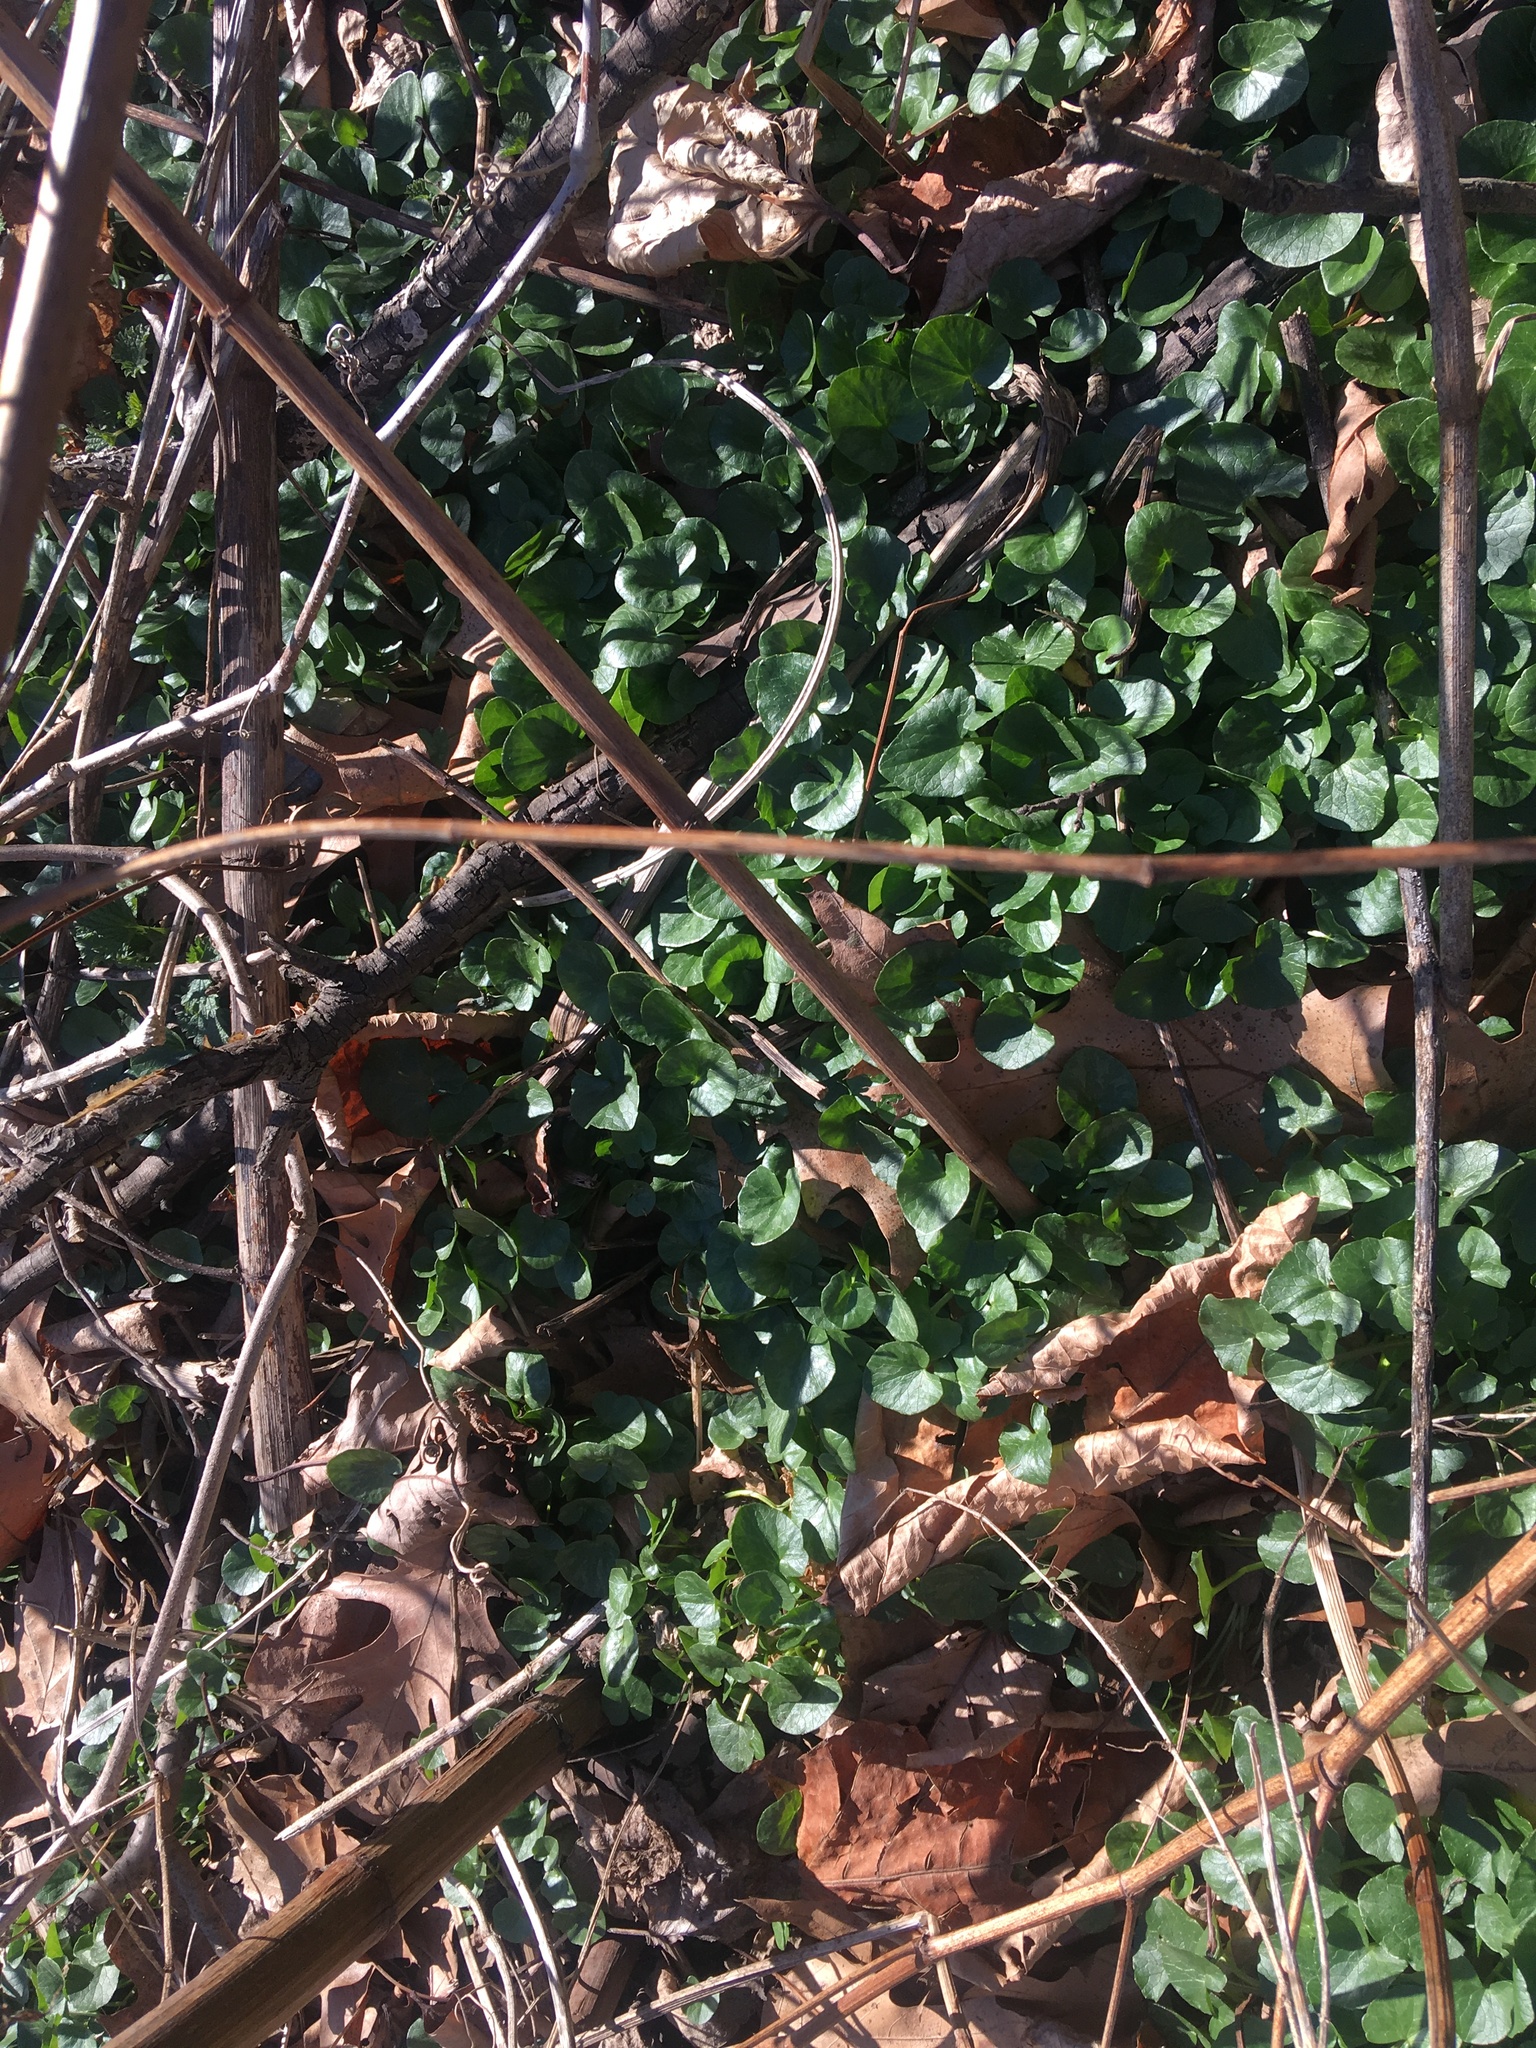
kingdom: Plantae
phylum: Tracheophyta
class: Magnoliopsida
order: Ranunculales
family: Ranunculaceae
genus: Ficaria
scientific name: Ficaria verna
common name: Lesser celandine
